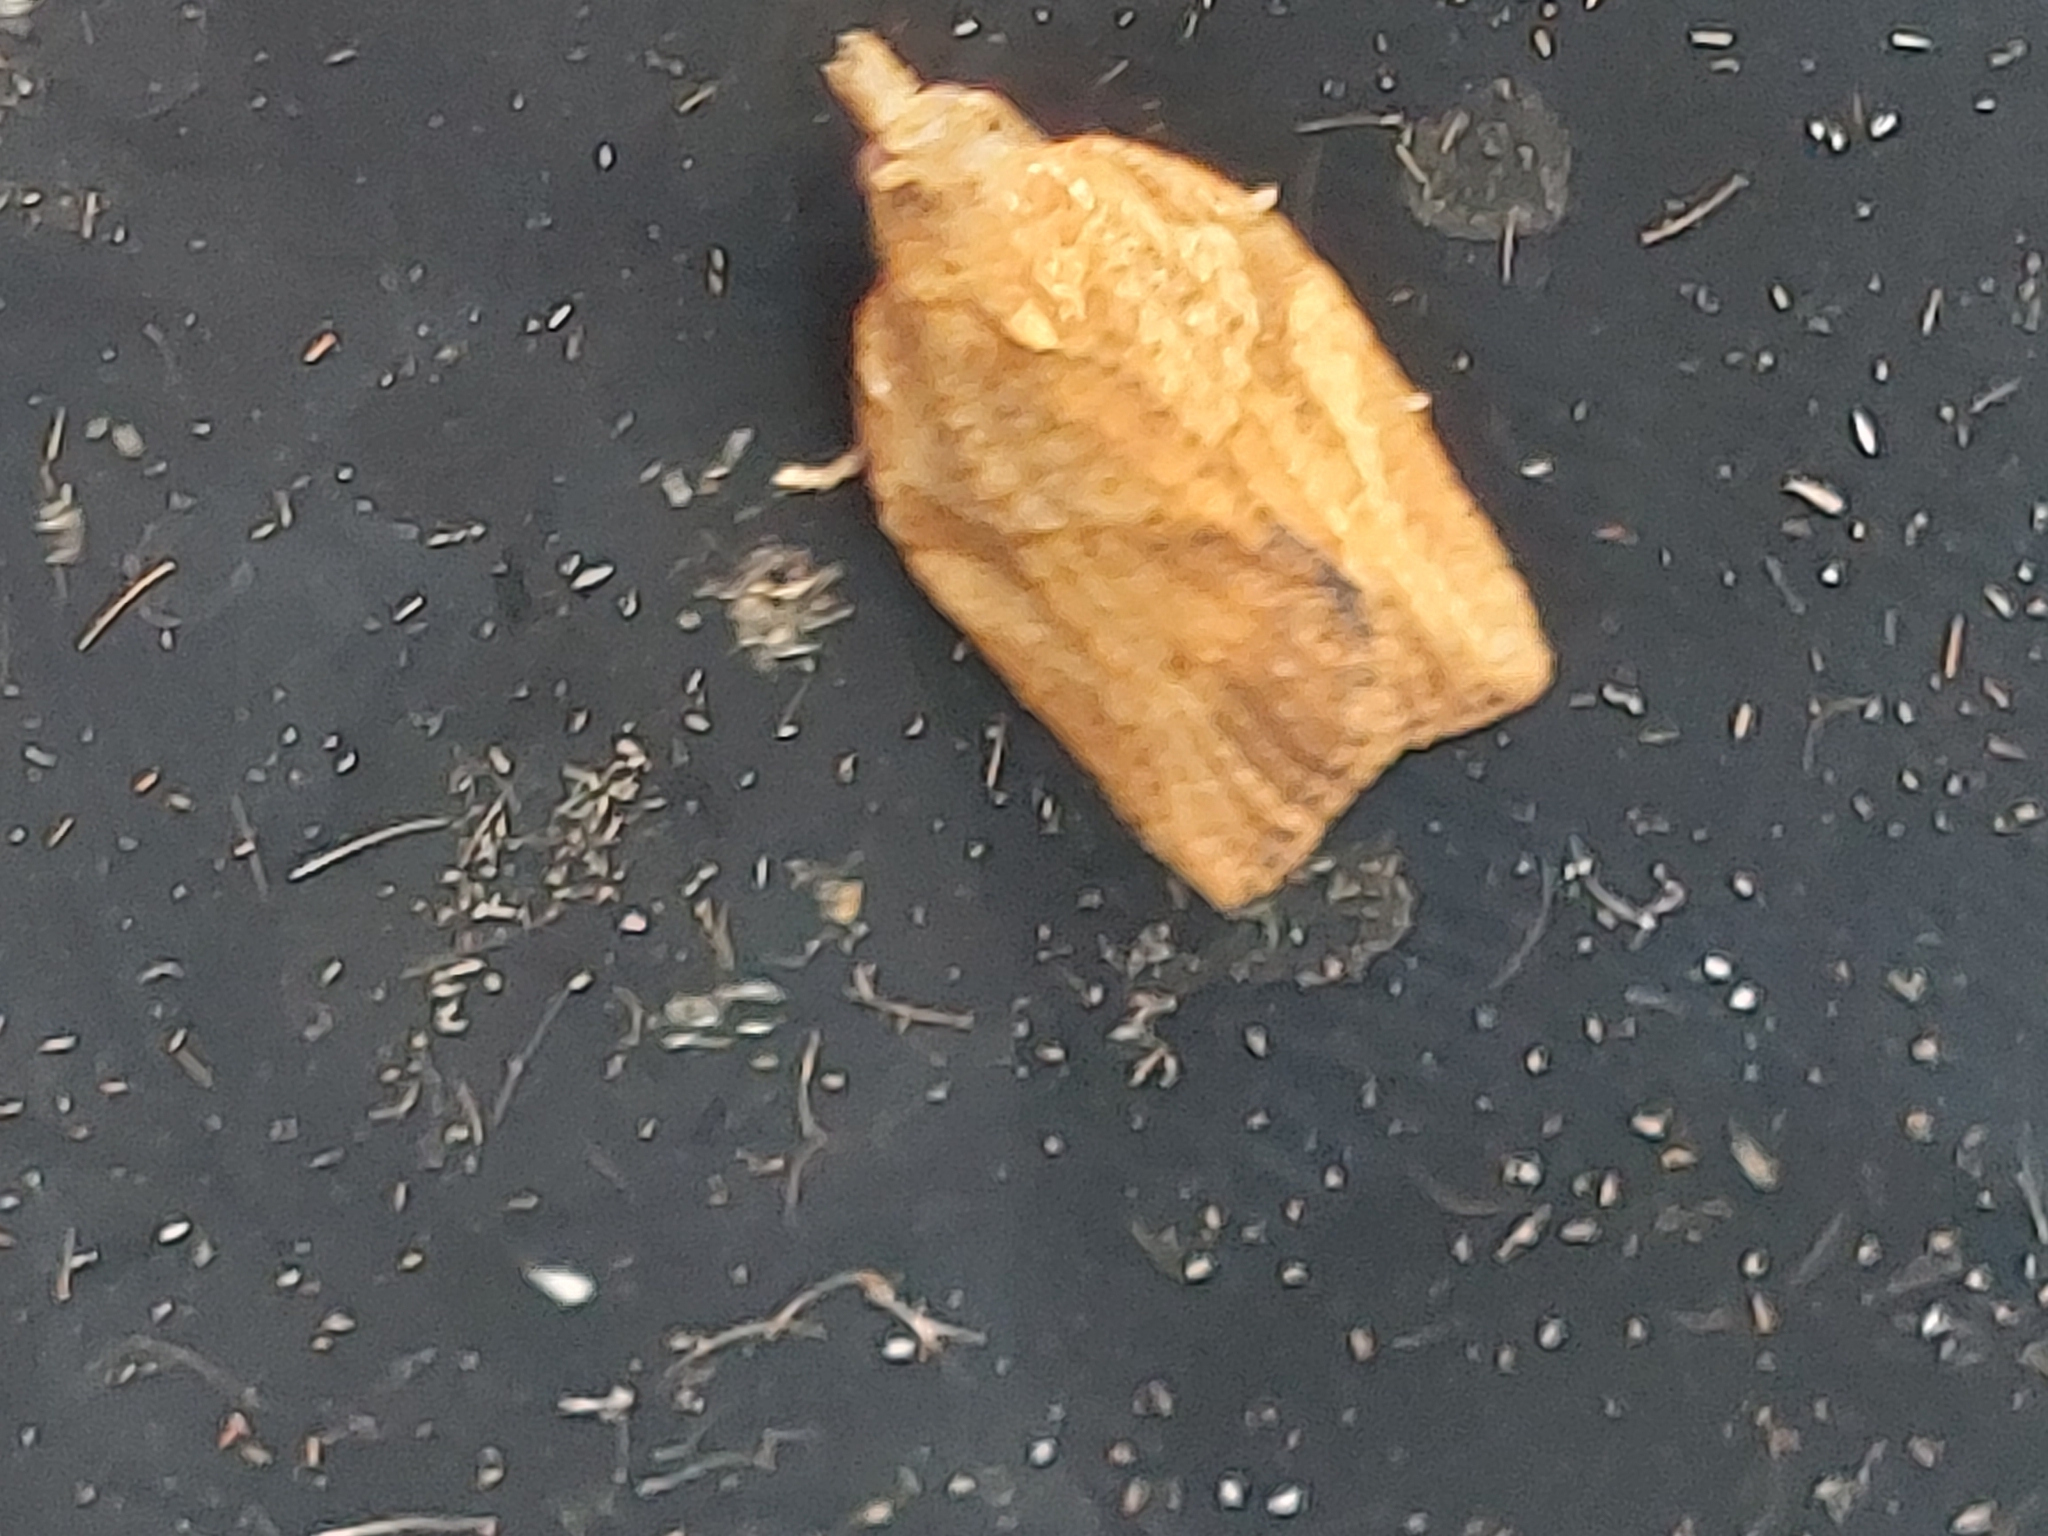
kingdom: Animalia
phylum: Arthropoda
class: Insecta
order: Lepidoptera
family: Tortricidae
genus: Epiphyas
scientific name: Epiphyas postvittana
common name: Light brown apple moth
